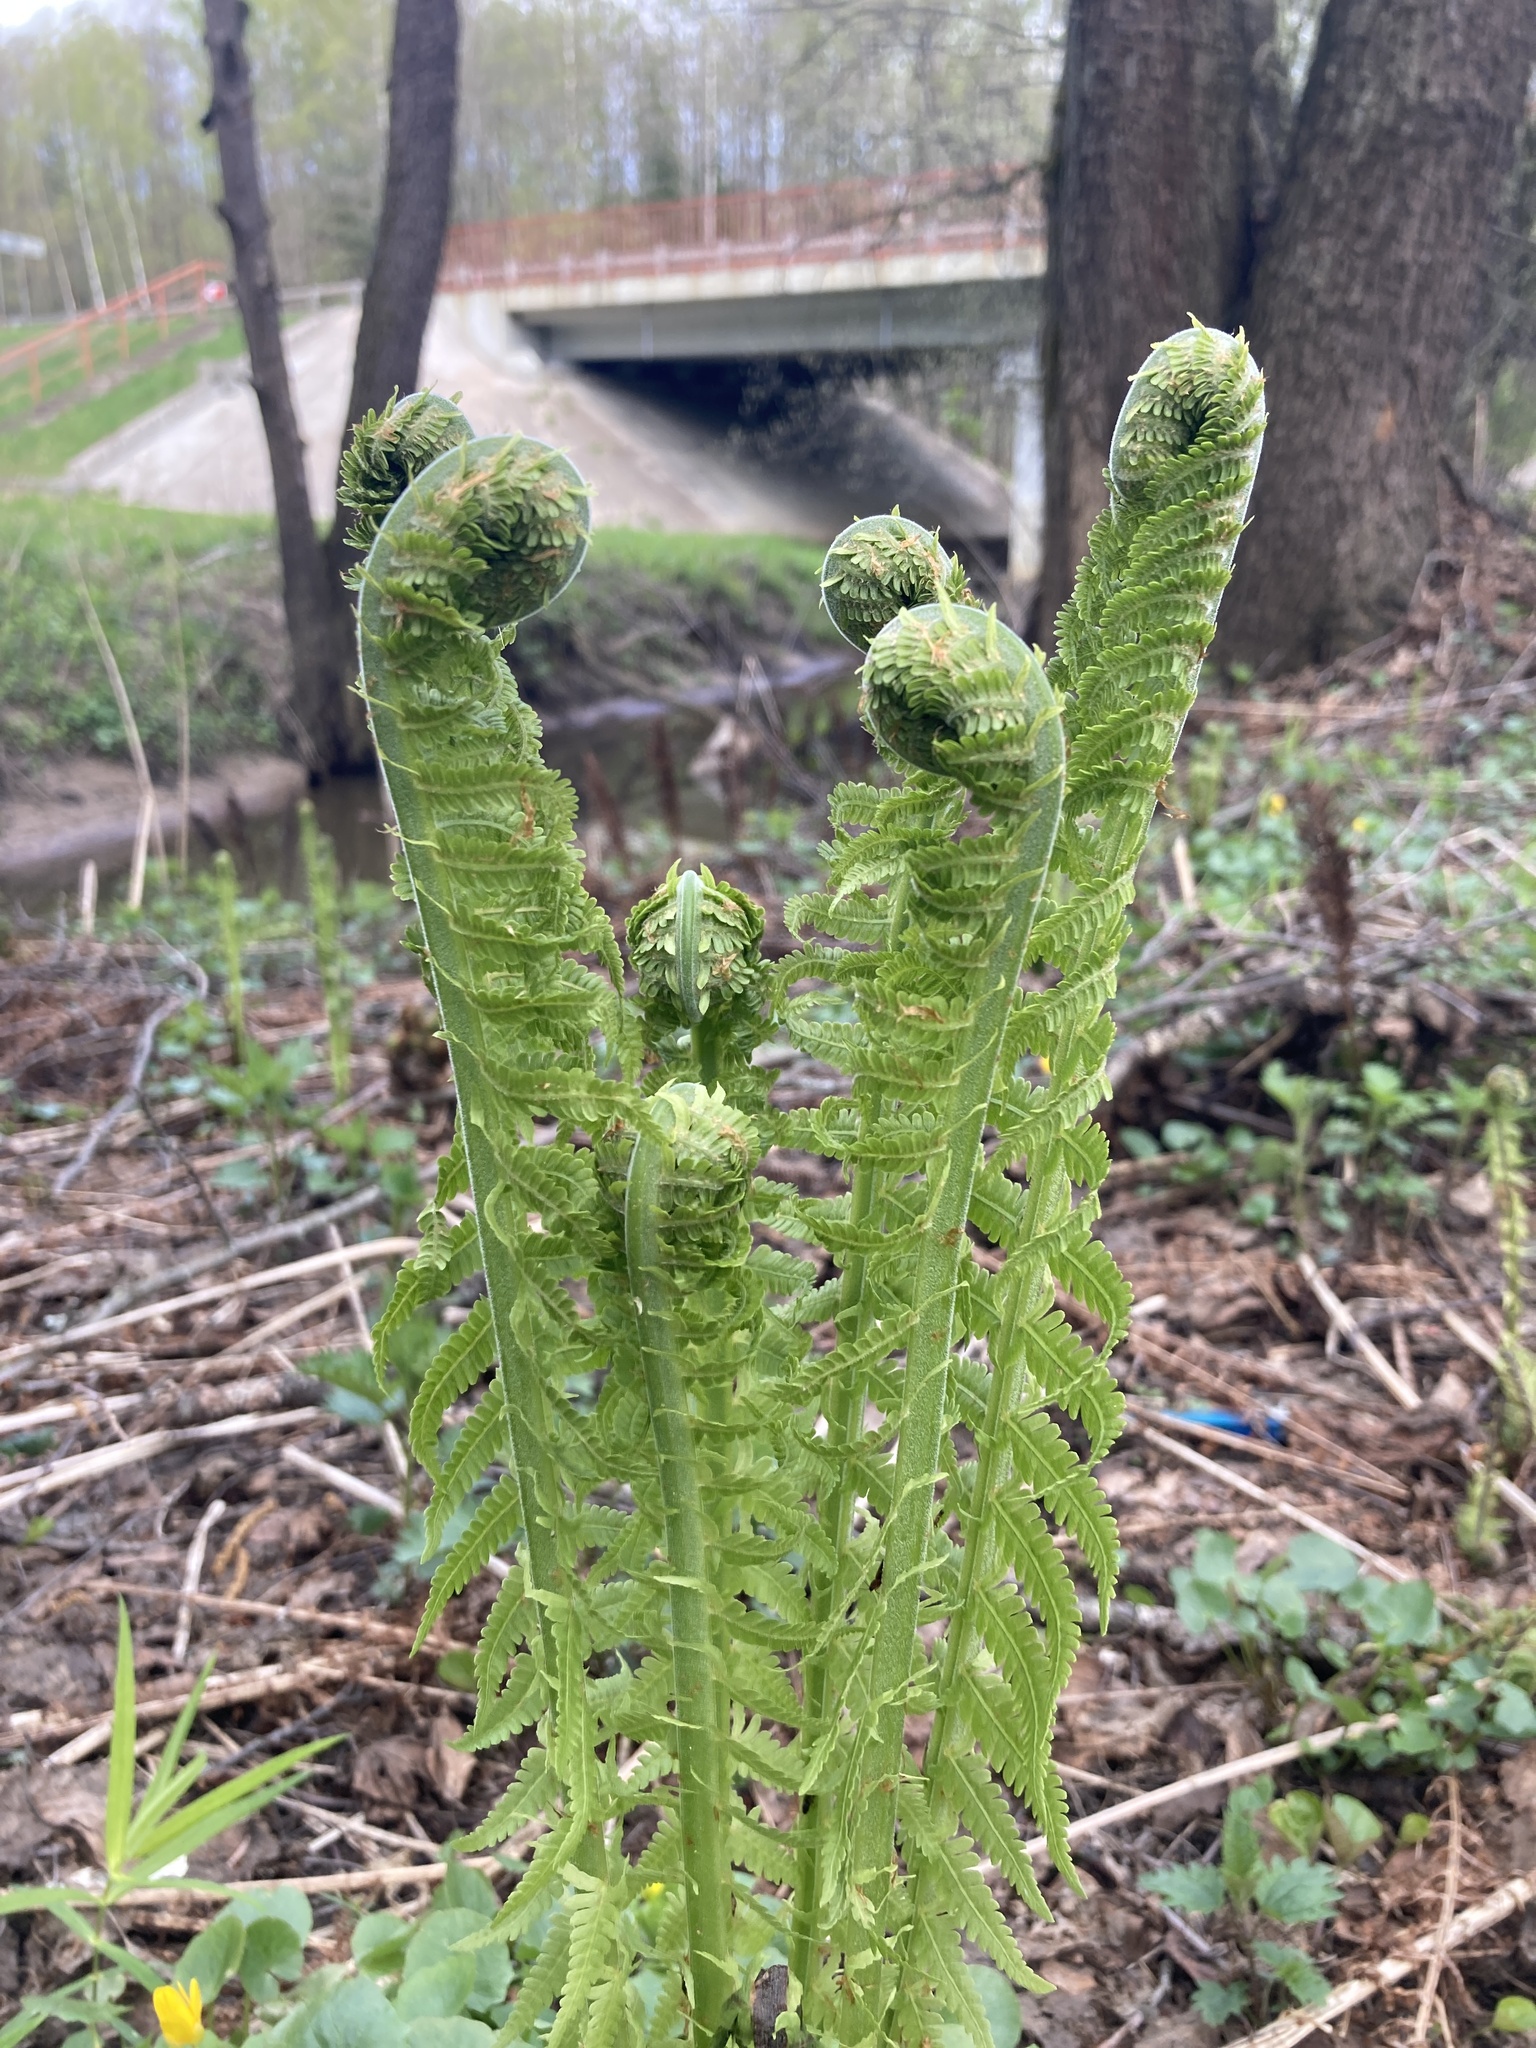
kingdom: Plantae
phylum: Tracheophyta
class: Polypodiopsida
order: Polypodiales
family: Onocleaceae
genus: Matteuccia
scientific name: Matteuccia struthiopteris
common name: Ostrich fern
